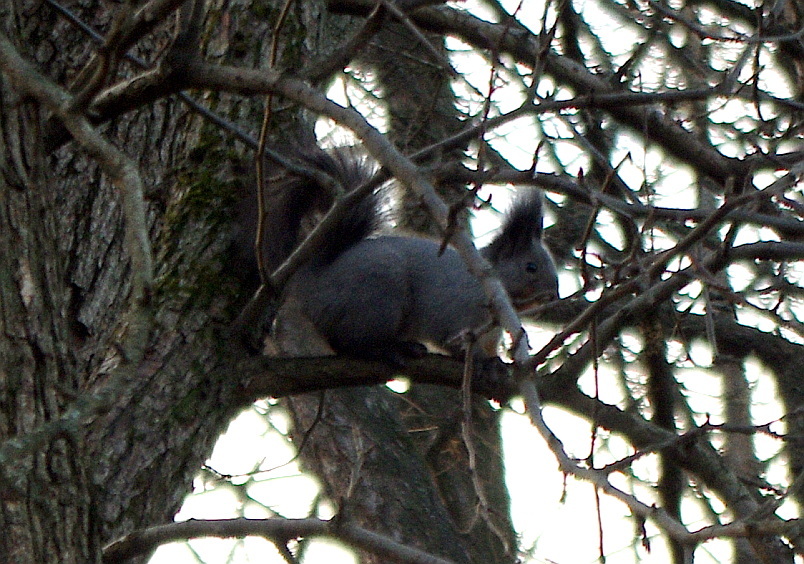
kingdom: Animalia
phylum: Chordata
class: Mammalia
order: Rodentia
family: Sciuridae
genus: Sciurus
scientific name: Sciurus vulgaris
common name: Eurasian red squirrel
